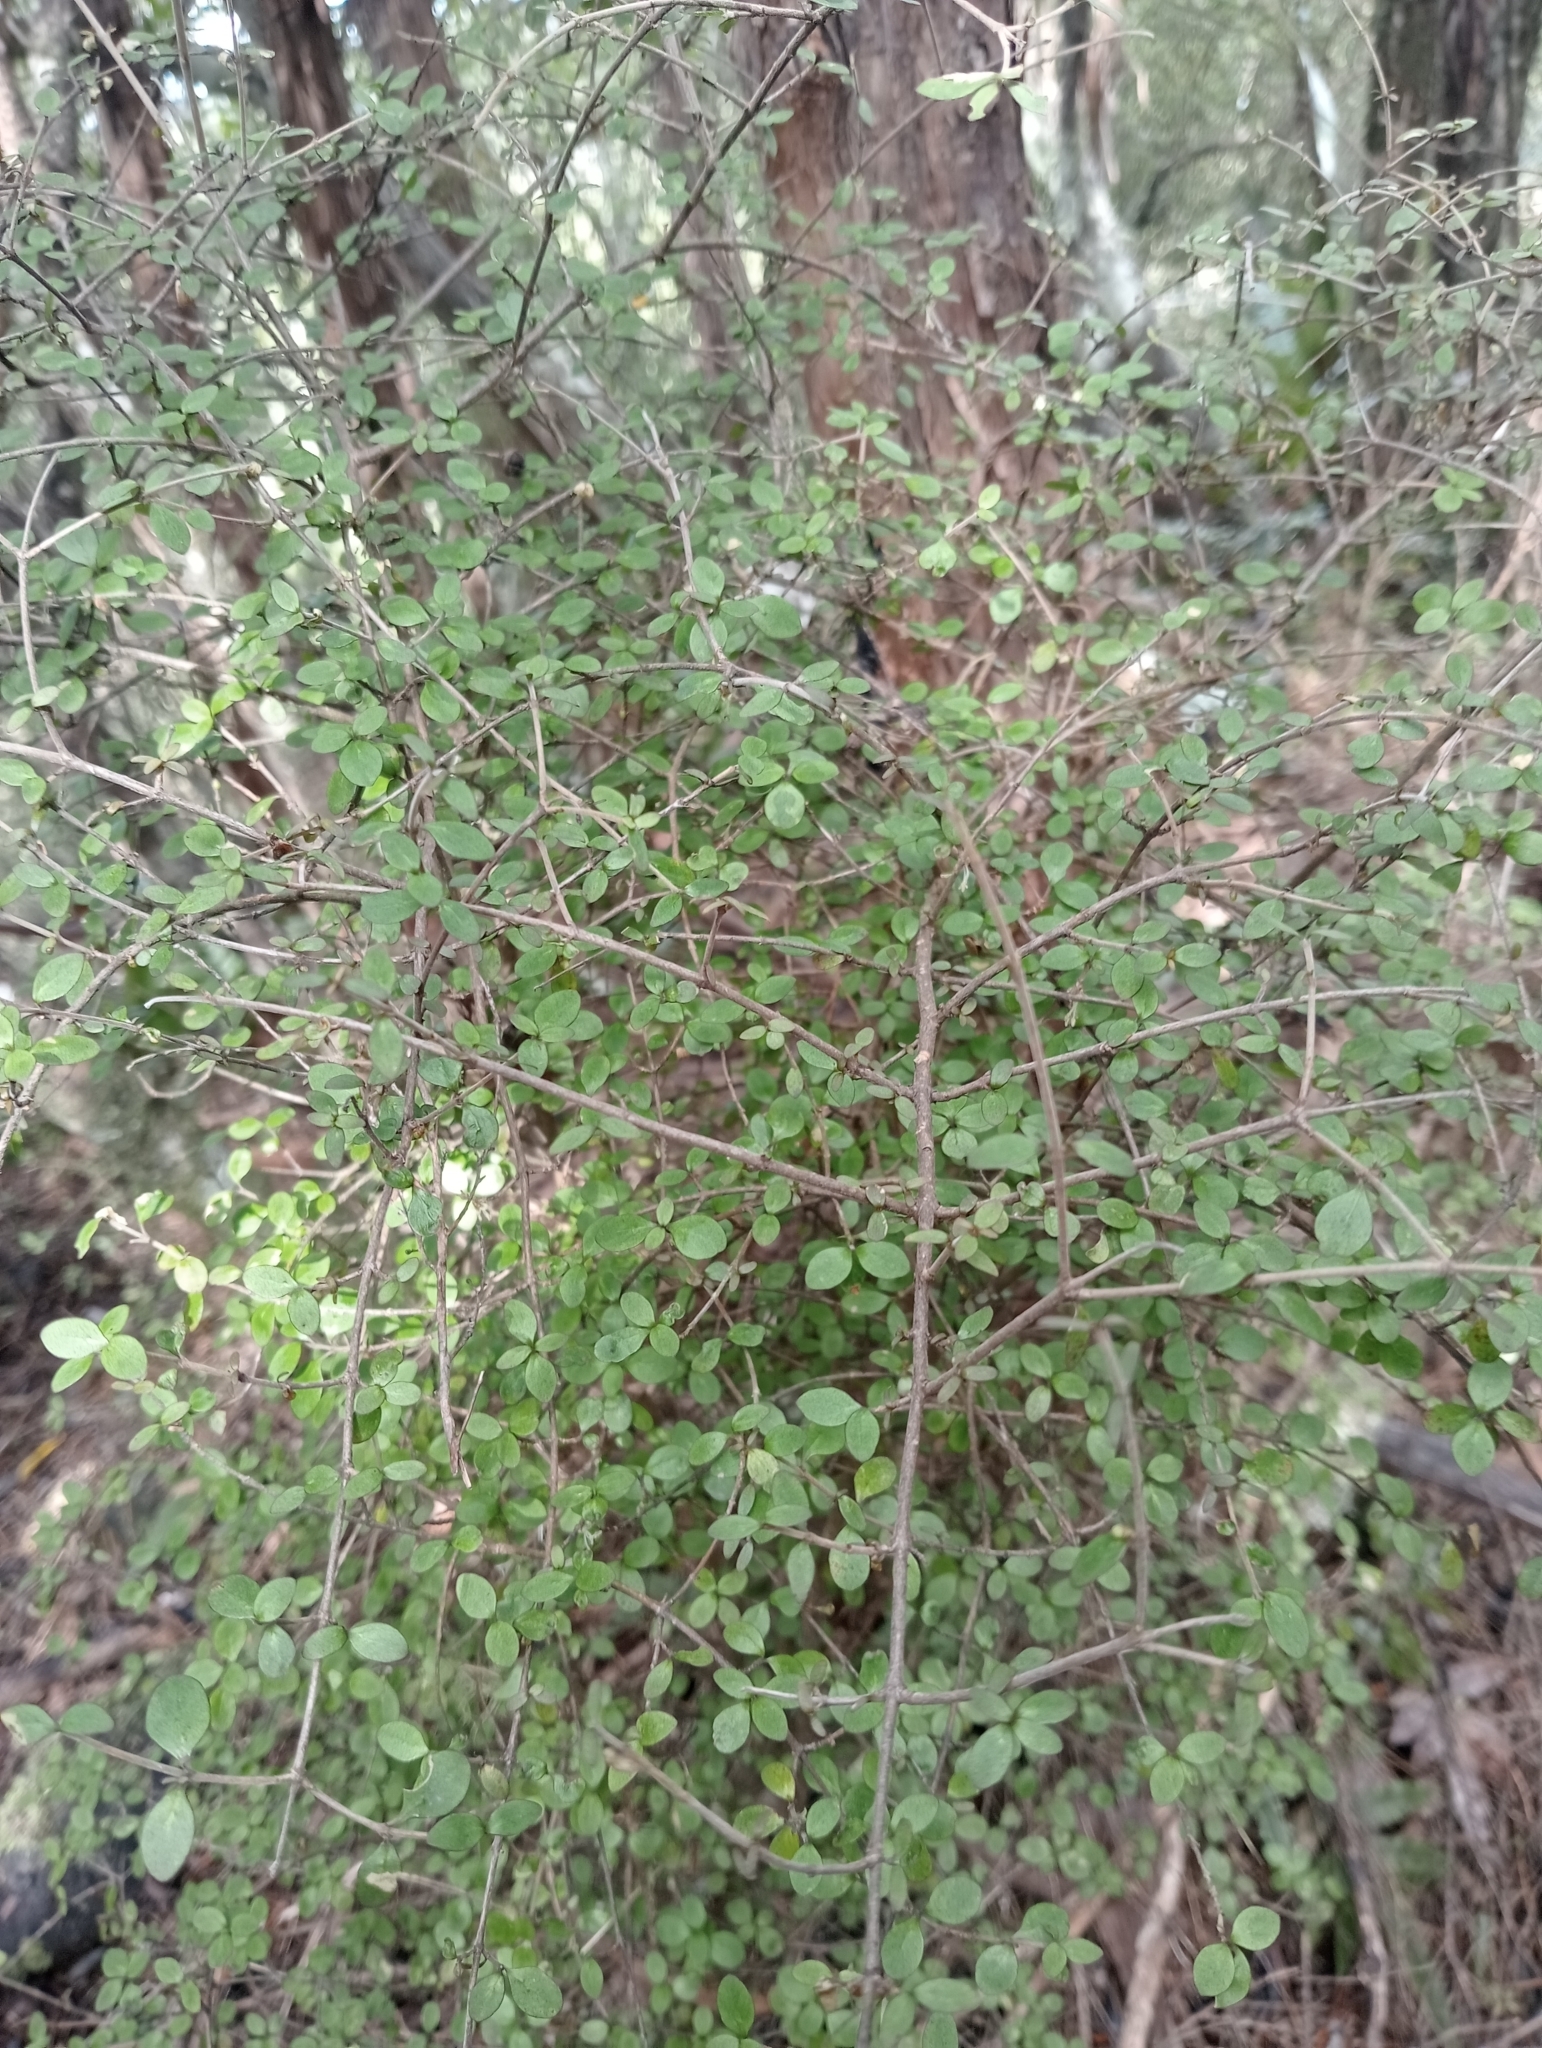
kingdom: Plantae
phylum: Tracheophyta
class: Magnoliopsida
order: Gentianales
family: Rubiaceae
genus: Coprosma
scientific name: Coprosma rhamnoides
